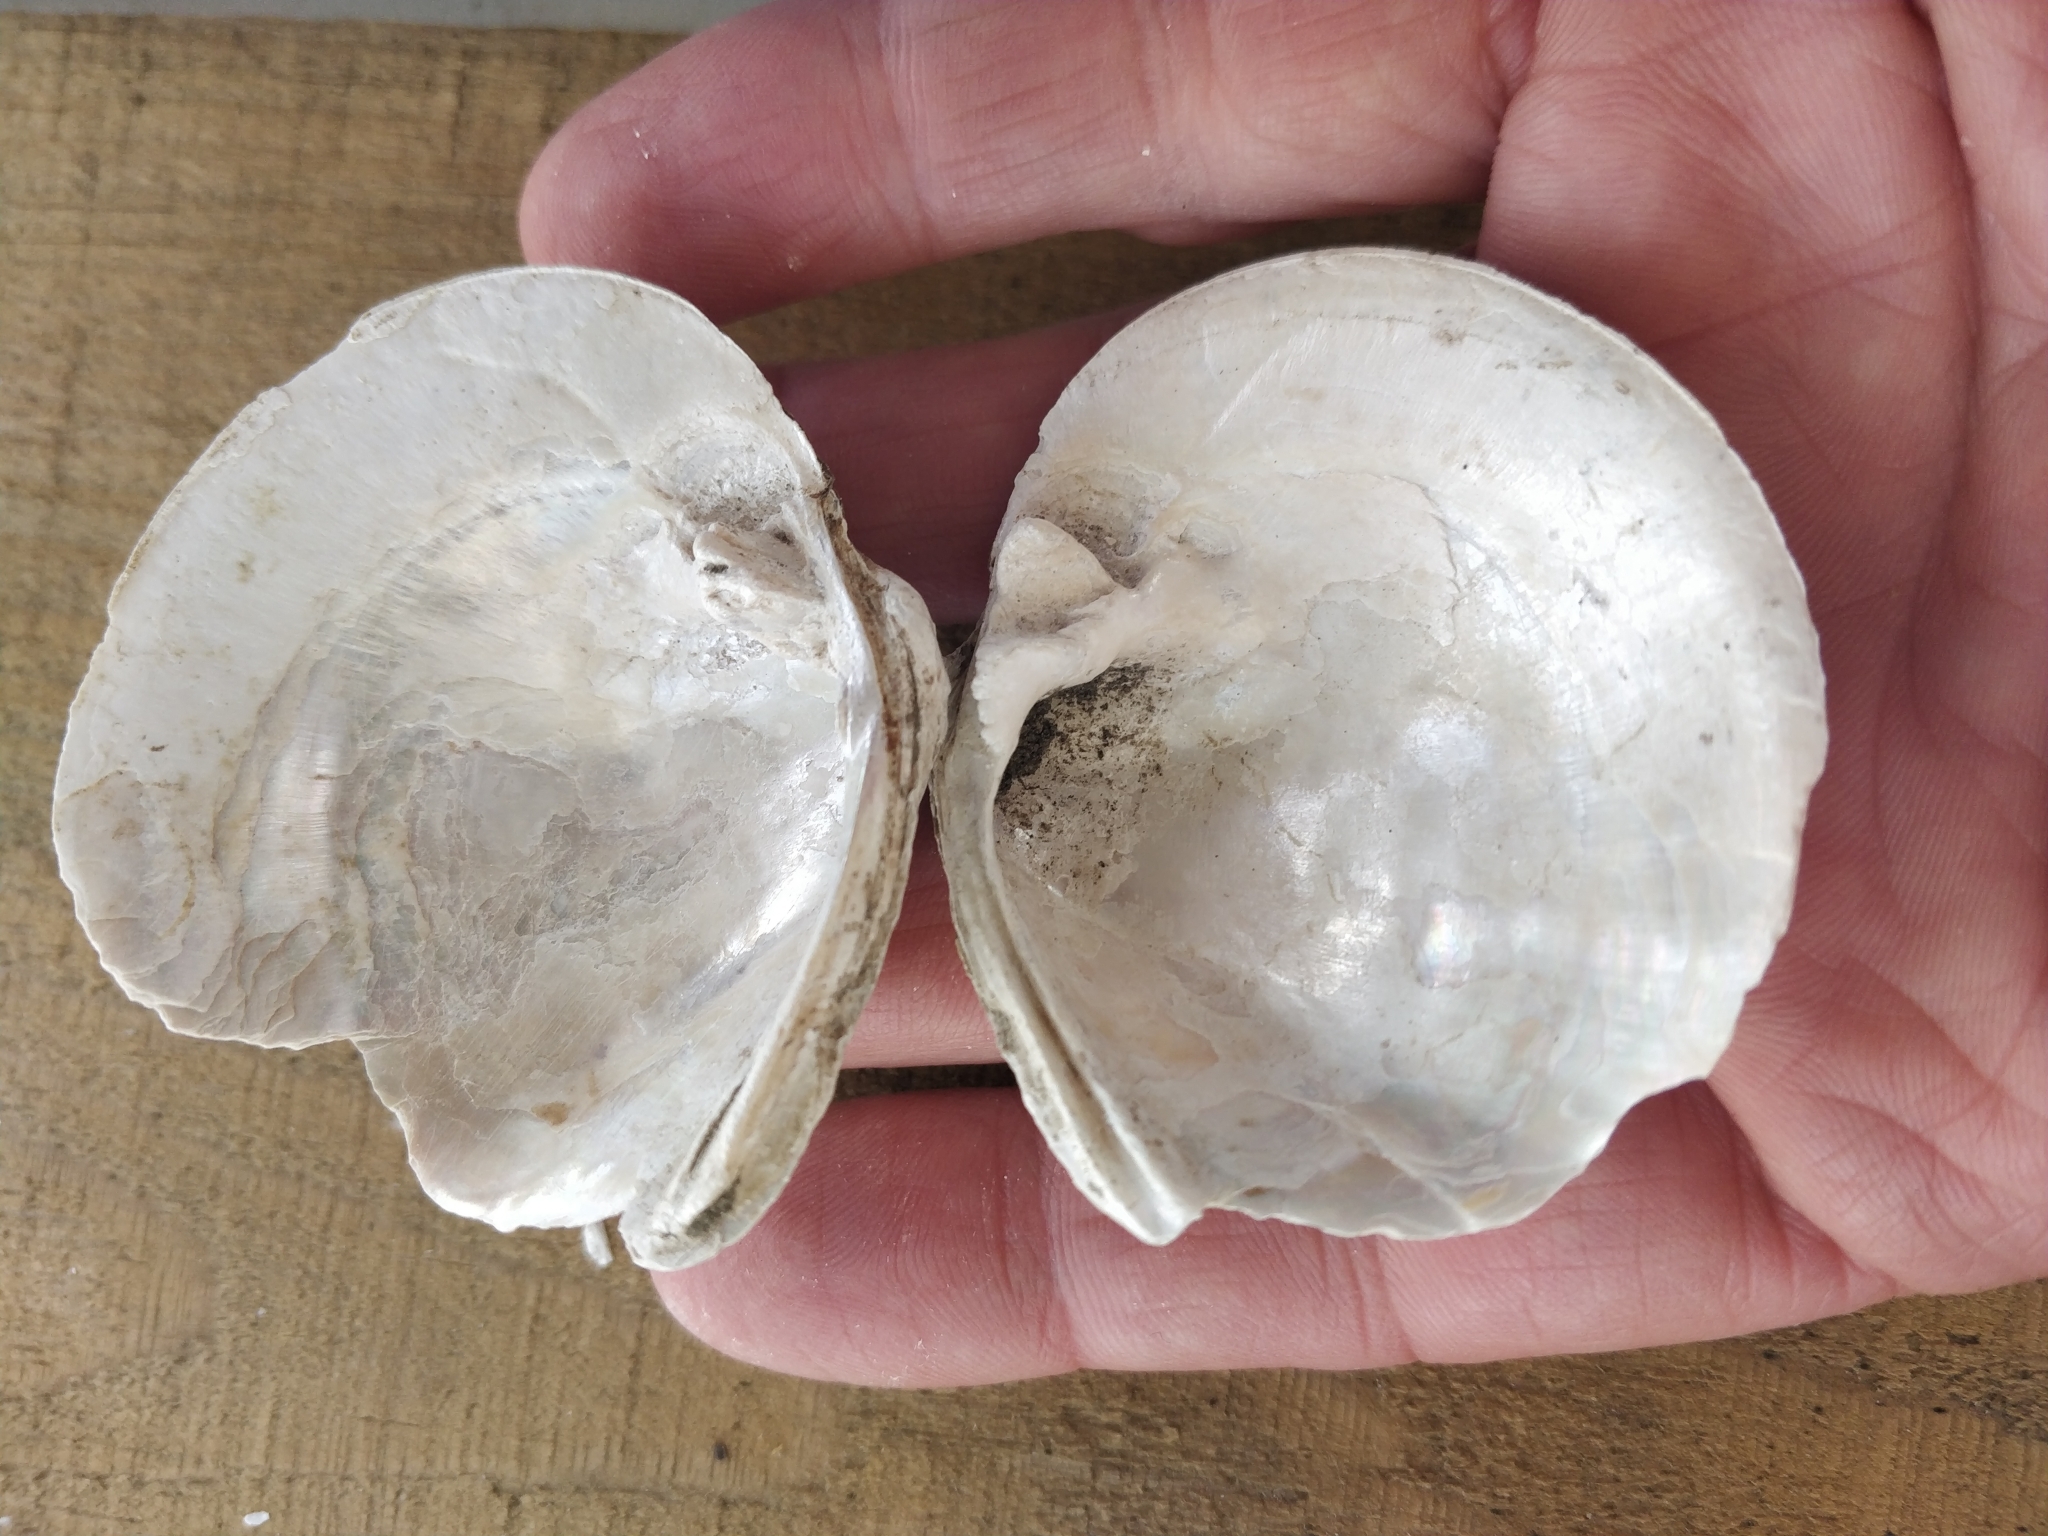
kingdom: Animalia
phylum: Mollusca
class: Bivalvia
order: Unionida
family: Unionidae
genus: Quadrula
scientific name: Quadrula quadrula
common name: Mapleleaf
